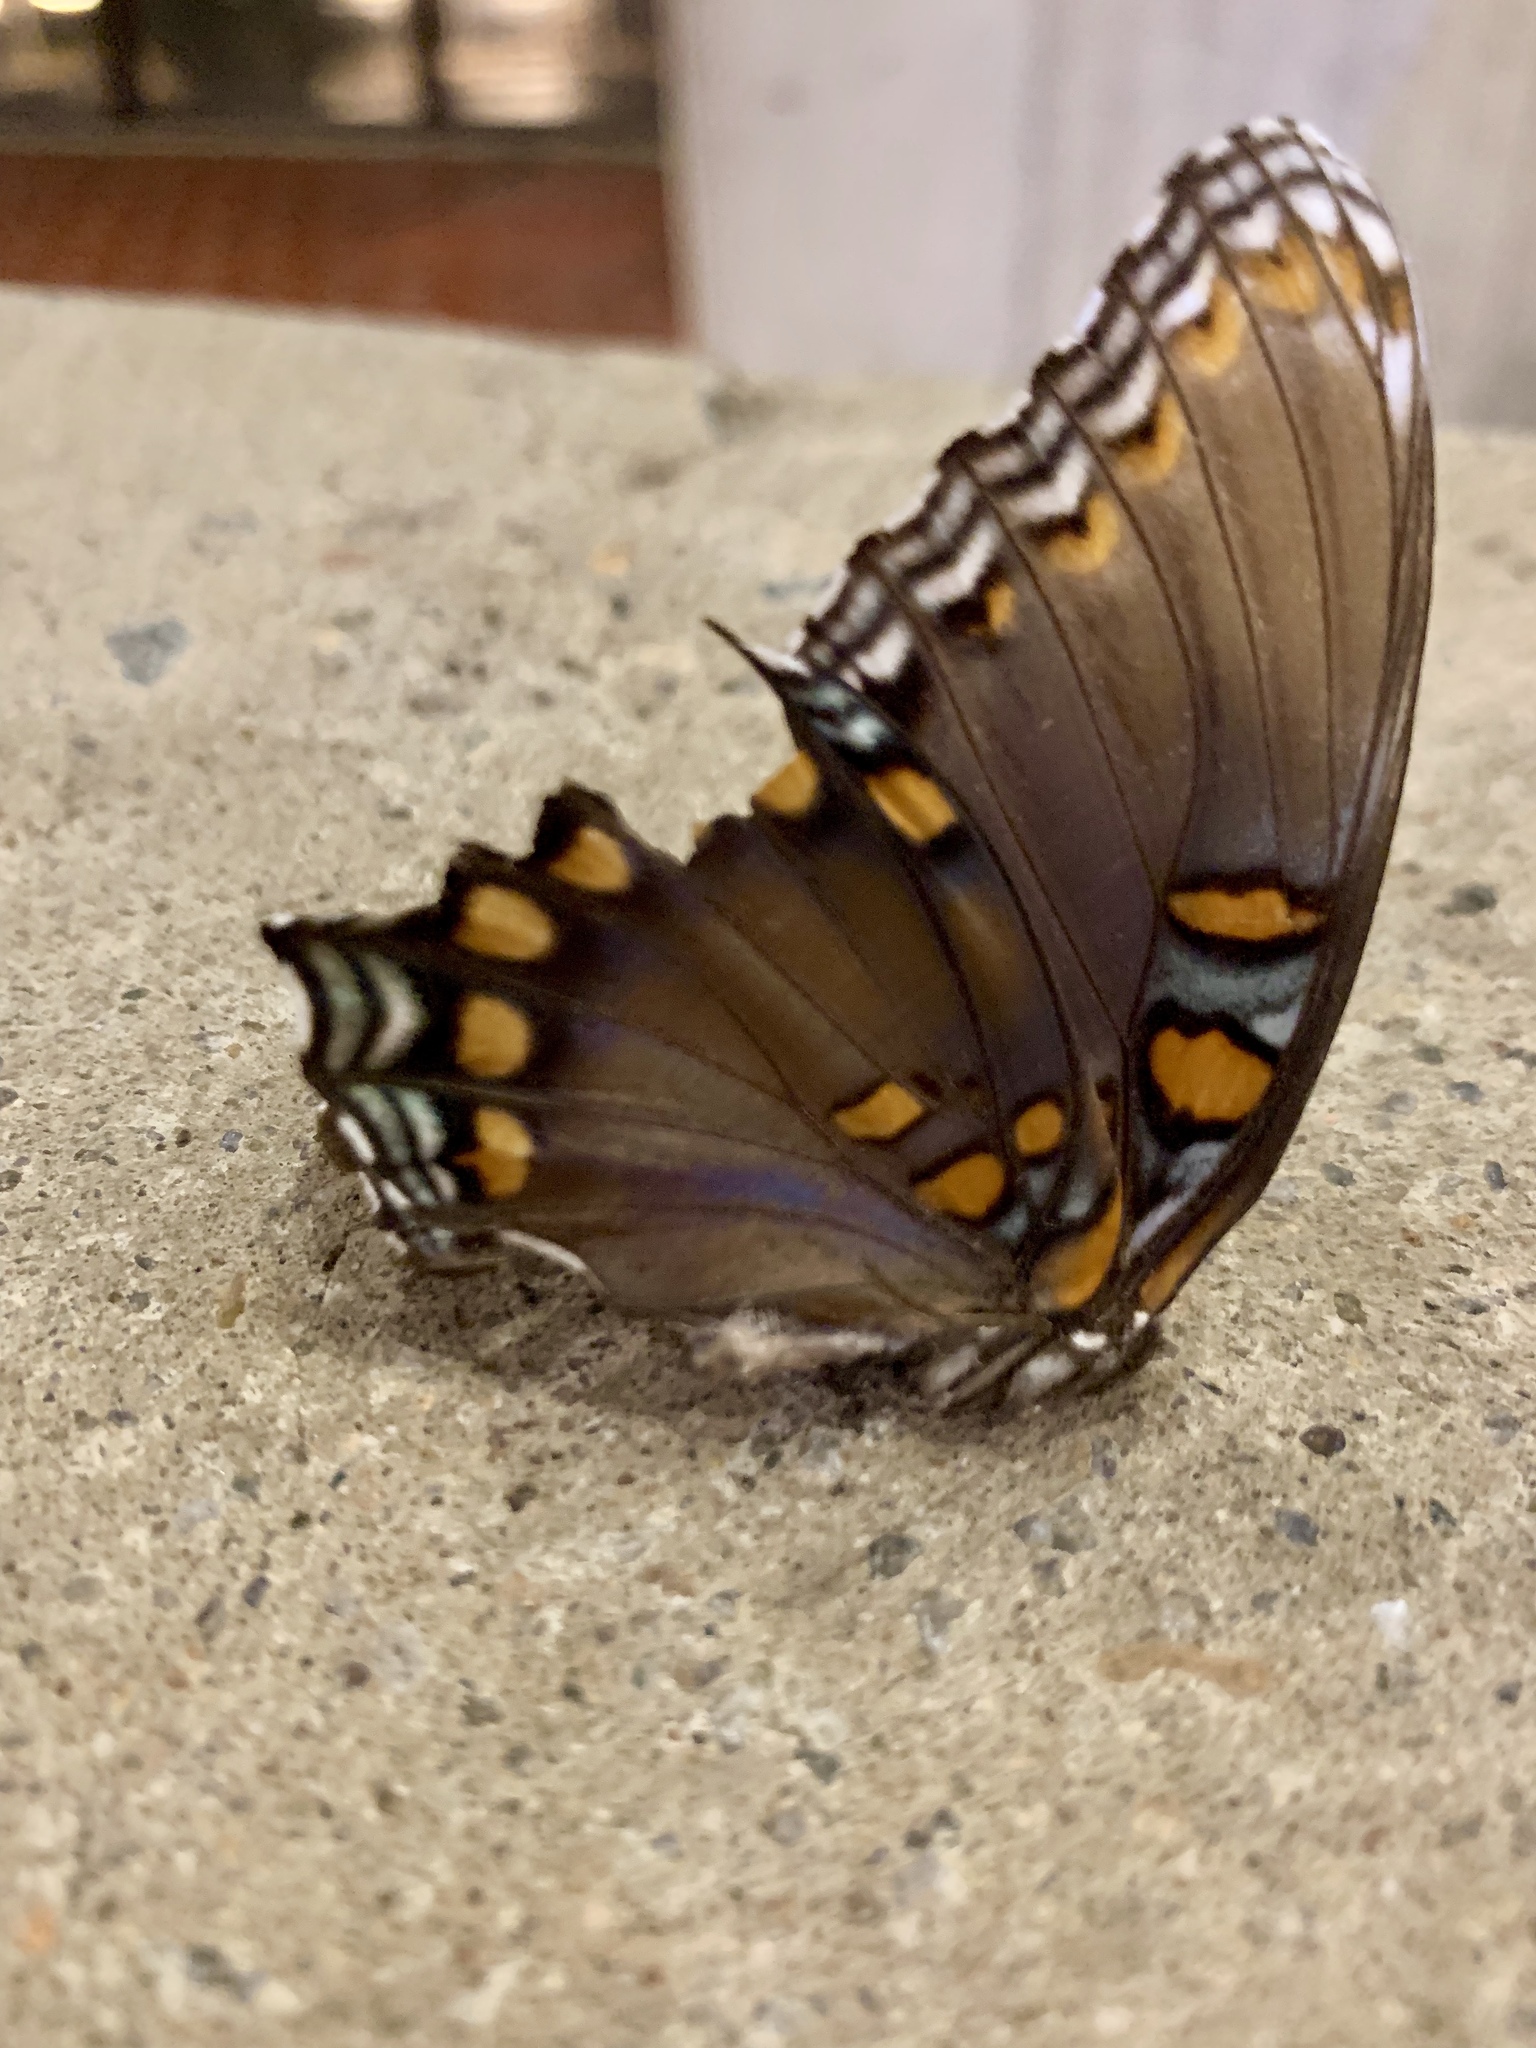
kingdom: Animalia
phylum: Arthropoda
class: Insecta
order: Lepidoptera
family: Nymphalidae
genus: Limenitis
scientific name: Limenitis astyanax
